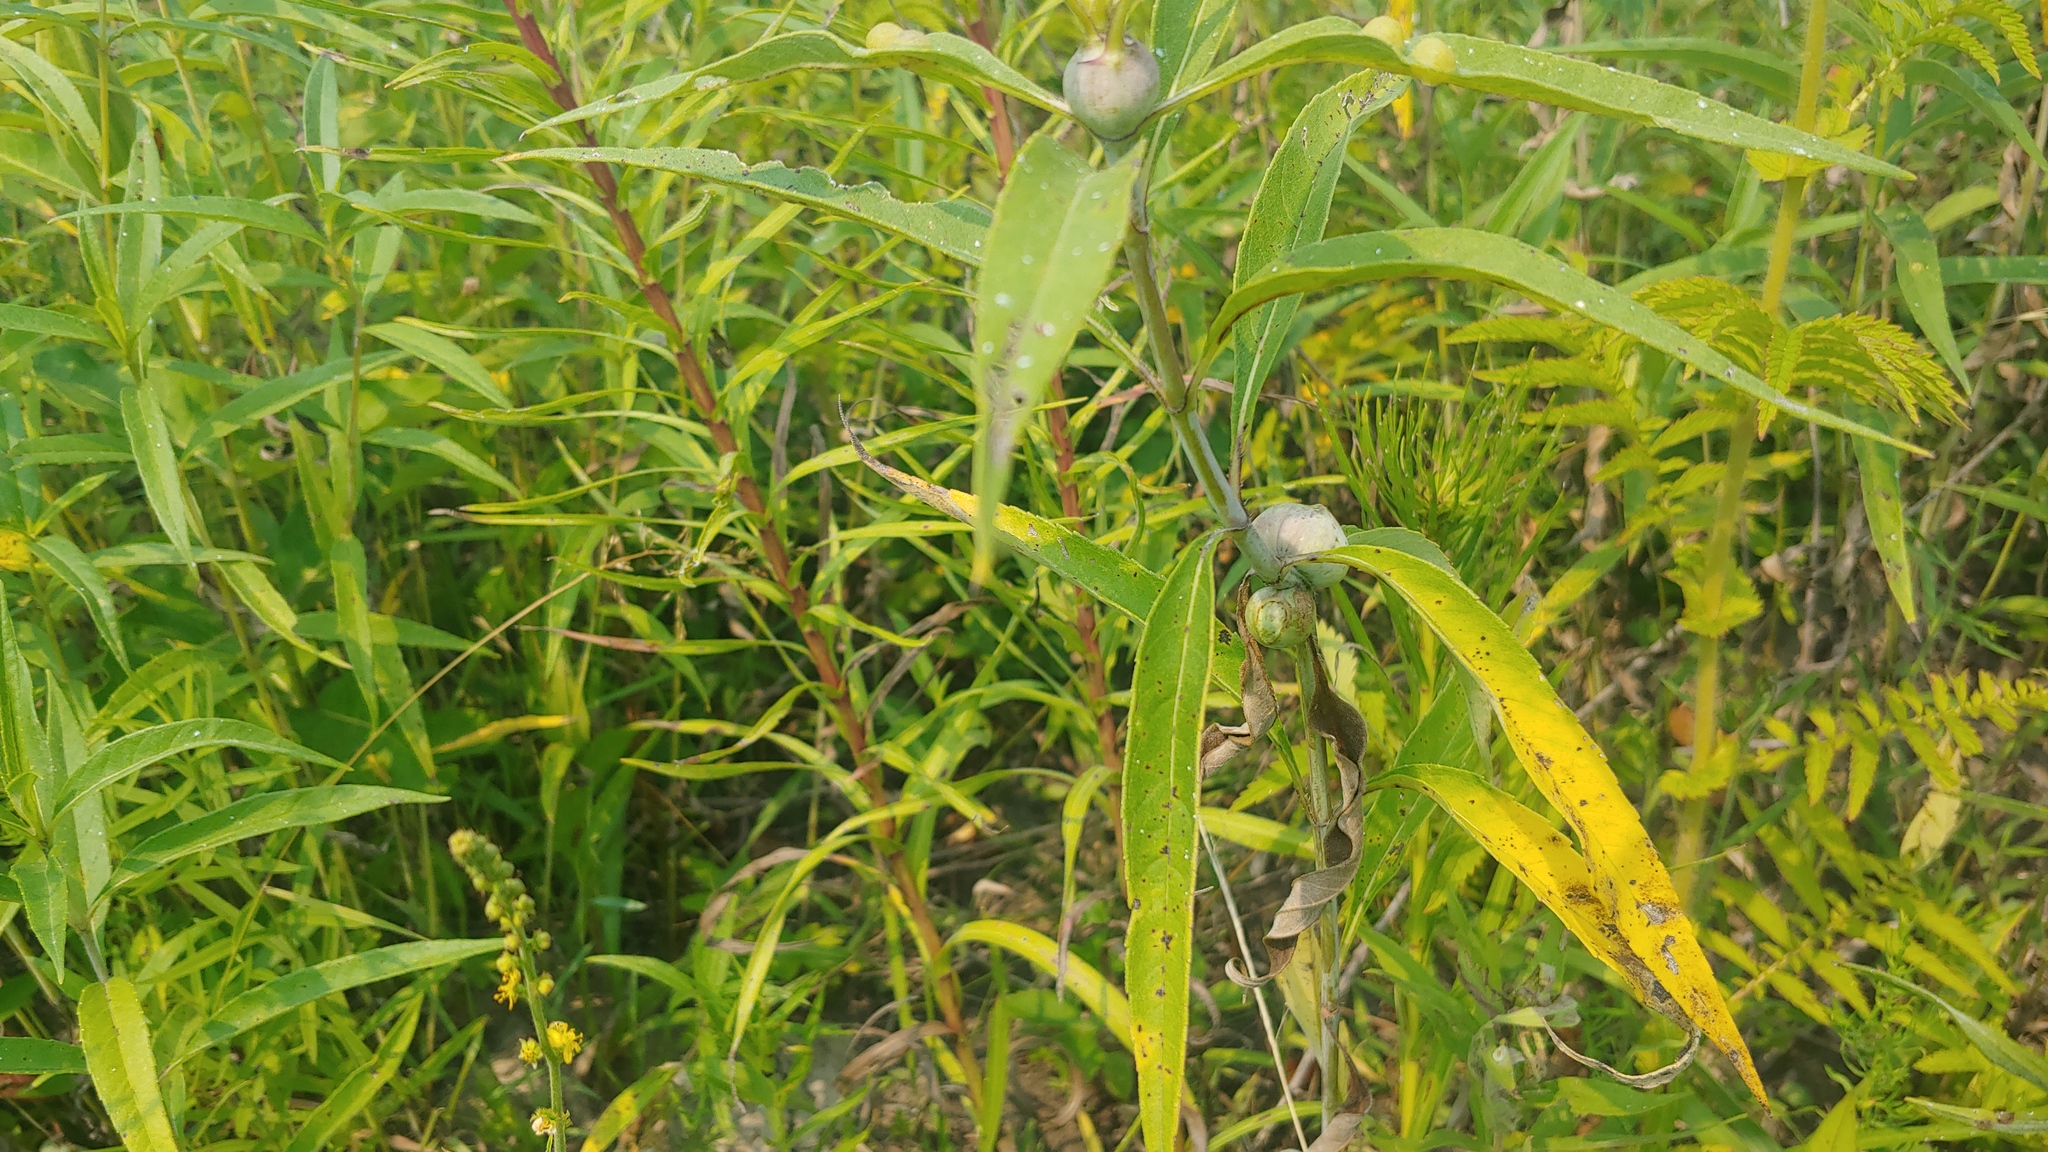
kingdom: Animalia
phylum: Arthropoda
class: Insecta
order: Diptera
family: Cecidomyiidae
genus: Asphondylia
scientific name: Asphondylia helianthiglobulus
